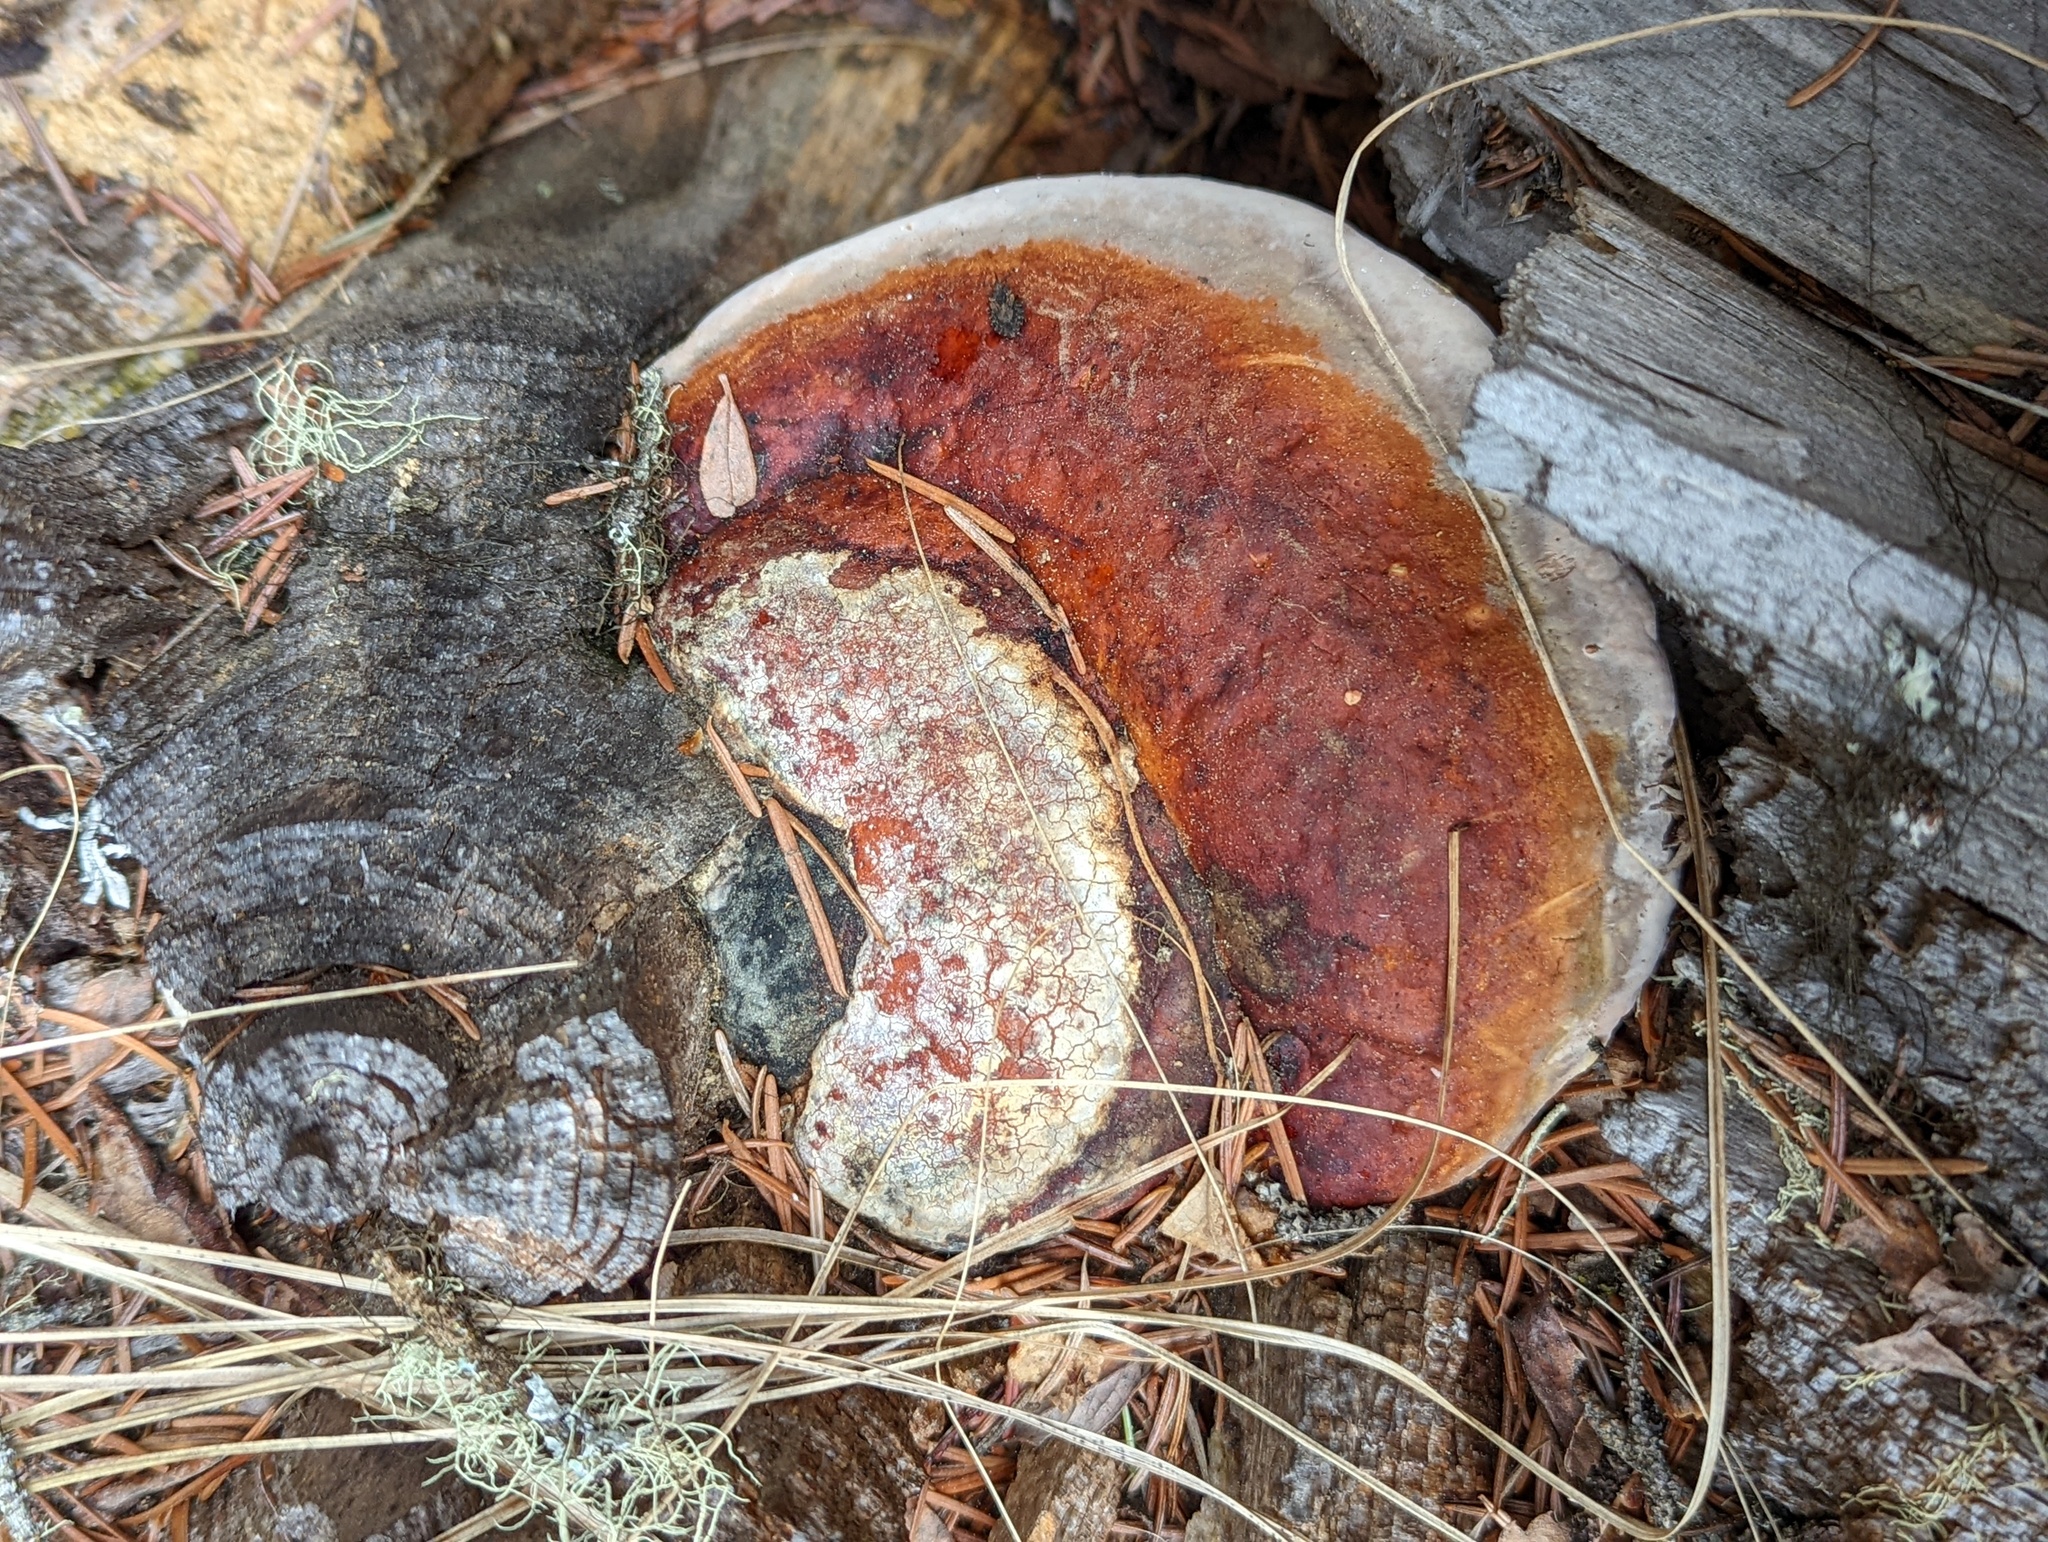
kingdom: Fungi
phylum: Basidiomycota
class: Agaricomycetes
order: Polyporales
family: Fomitopsidaceae
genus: Fomitopsis
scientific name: Fomitopsis mounceae
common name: Northern red belt
